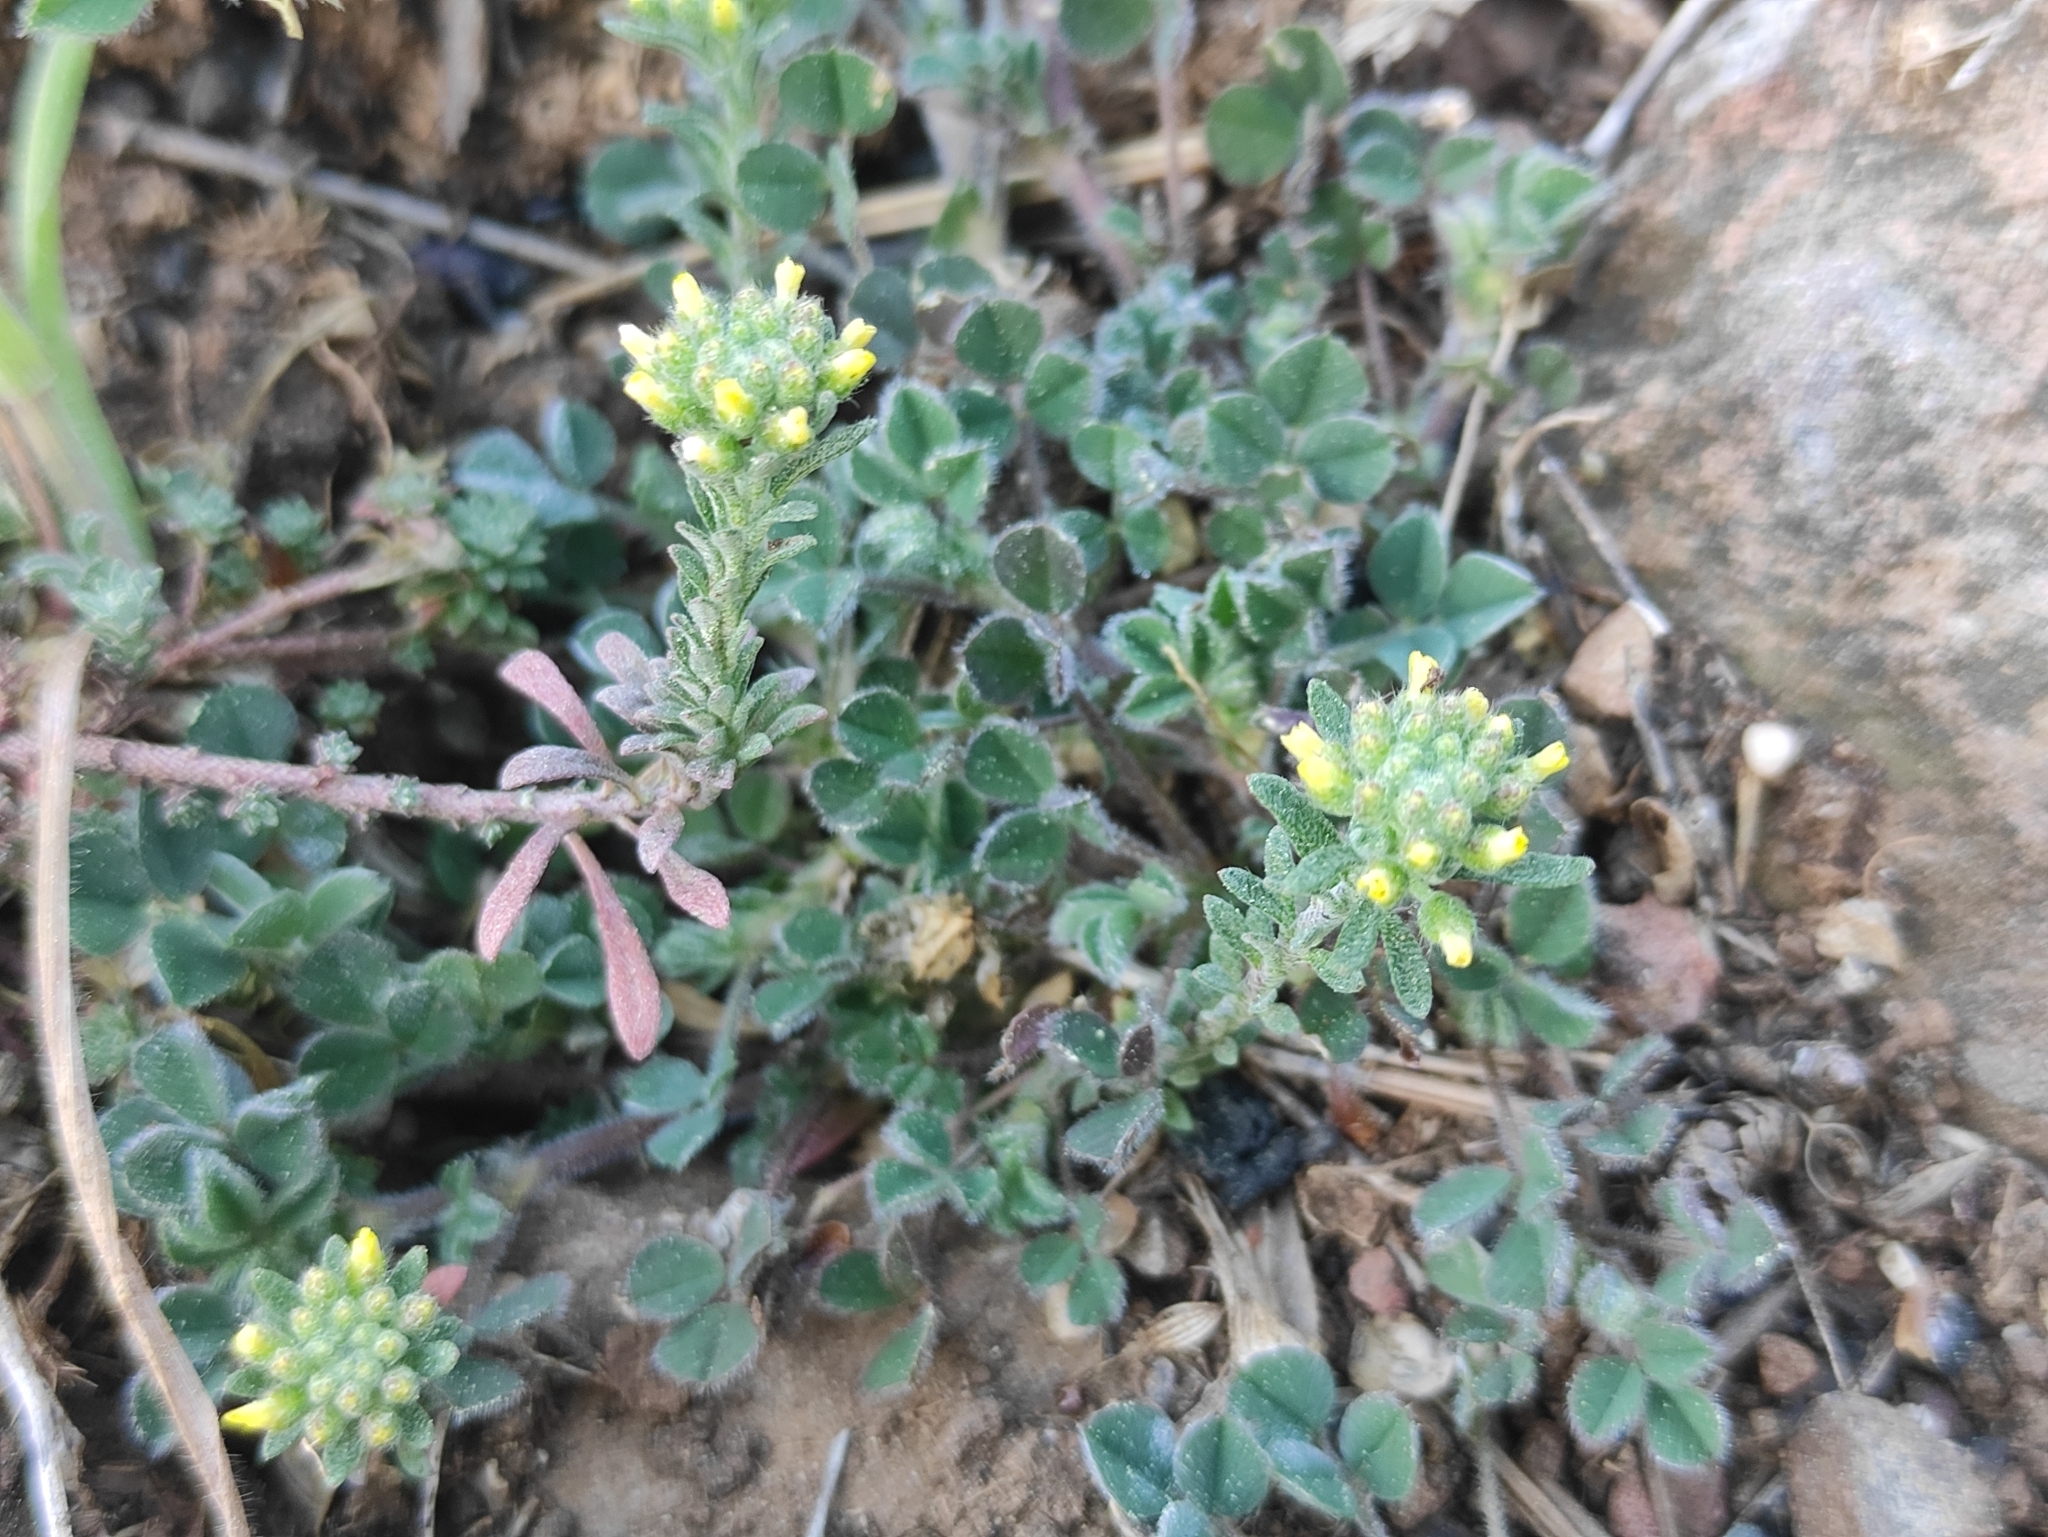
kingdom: Plantae
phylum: Tracheophyta
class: Magnoliopsida
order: Brassicales
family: Brassicaceae
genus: Alyssum
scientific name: Alyssum alyssoides
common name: Small alison
